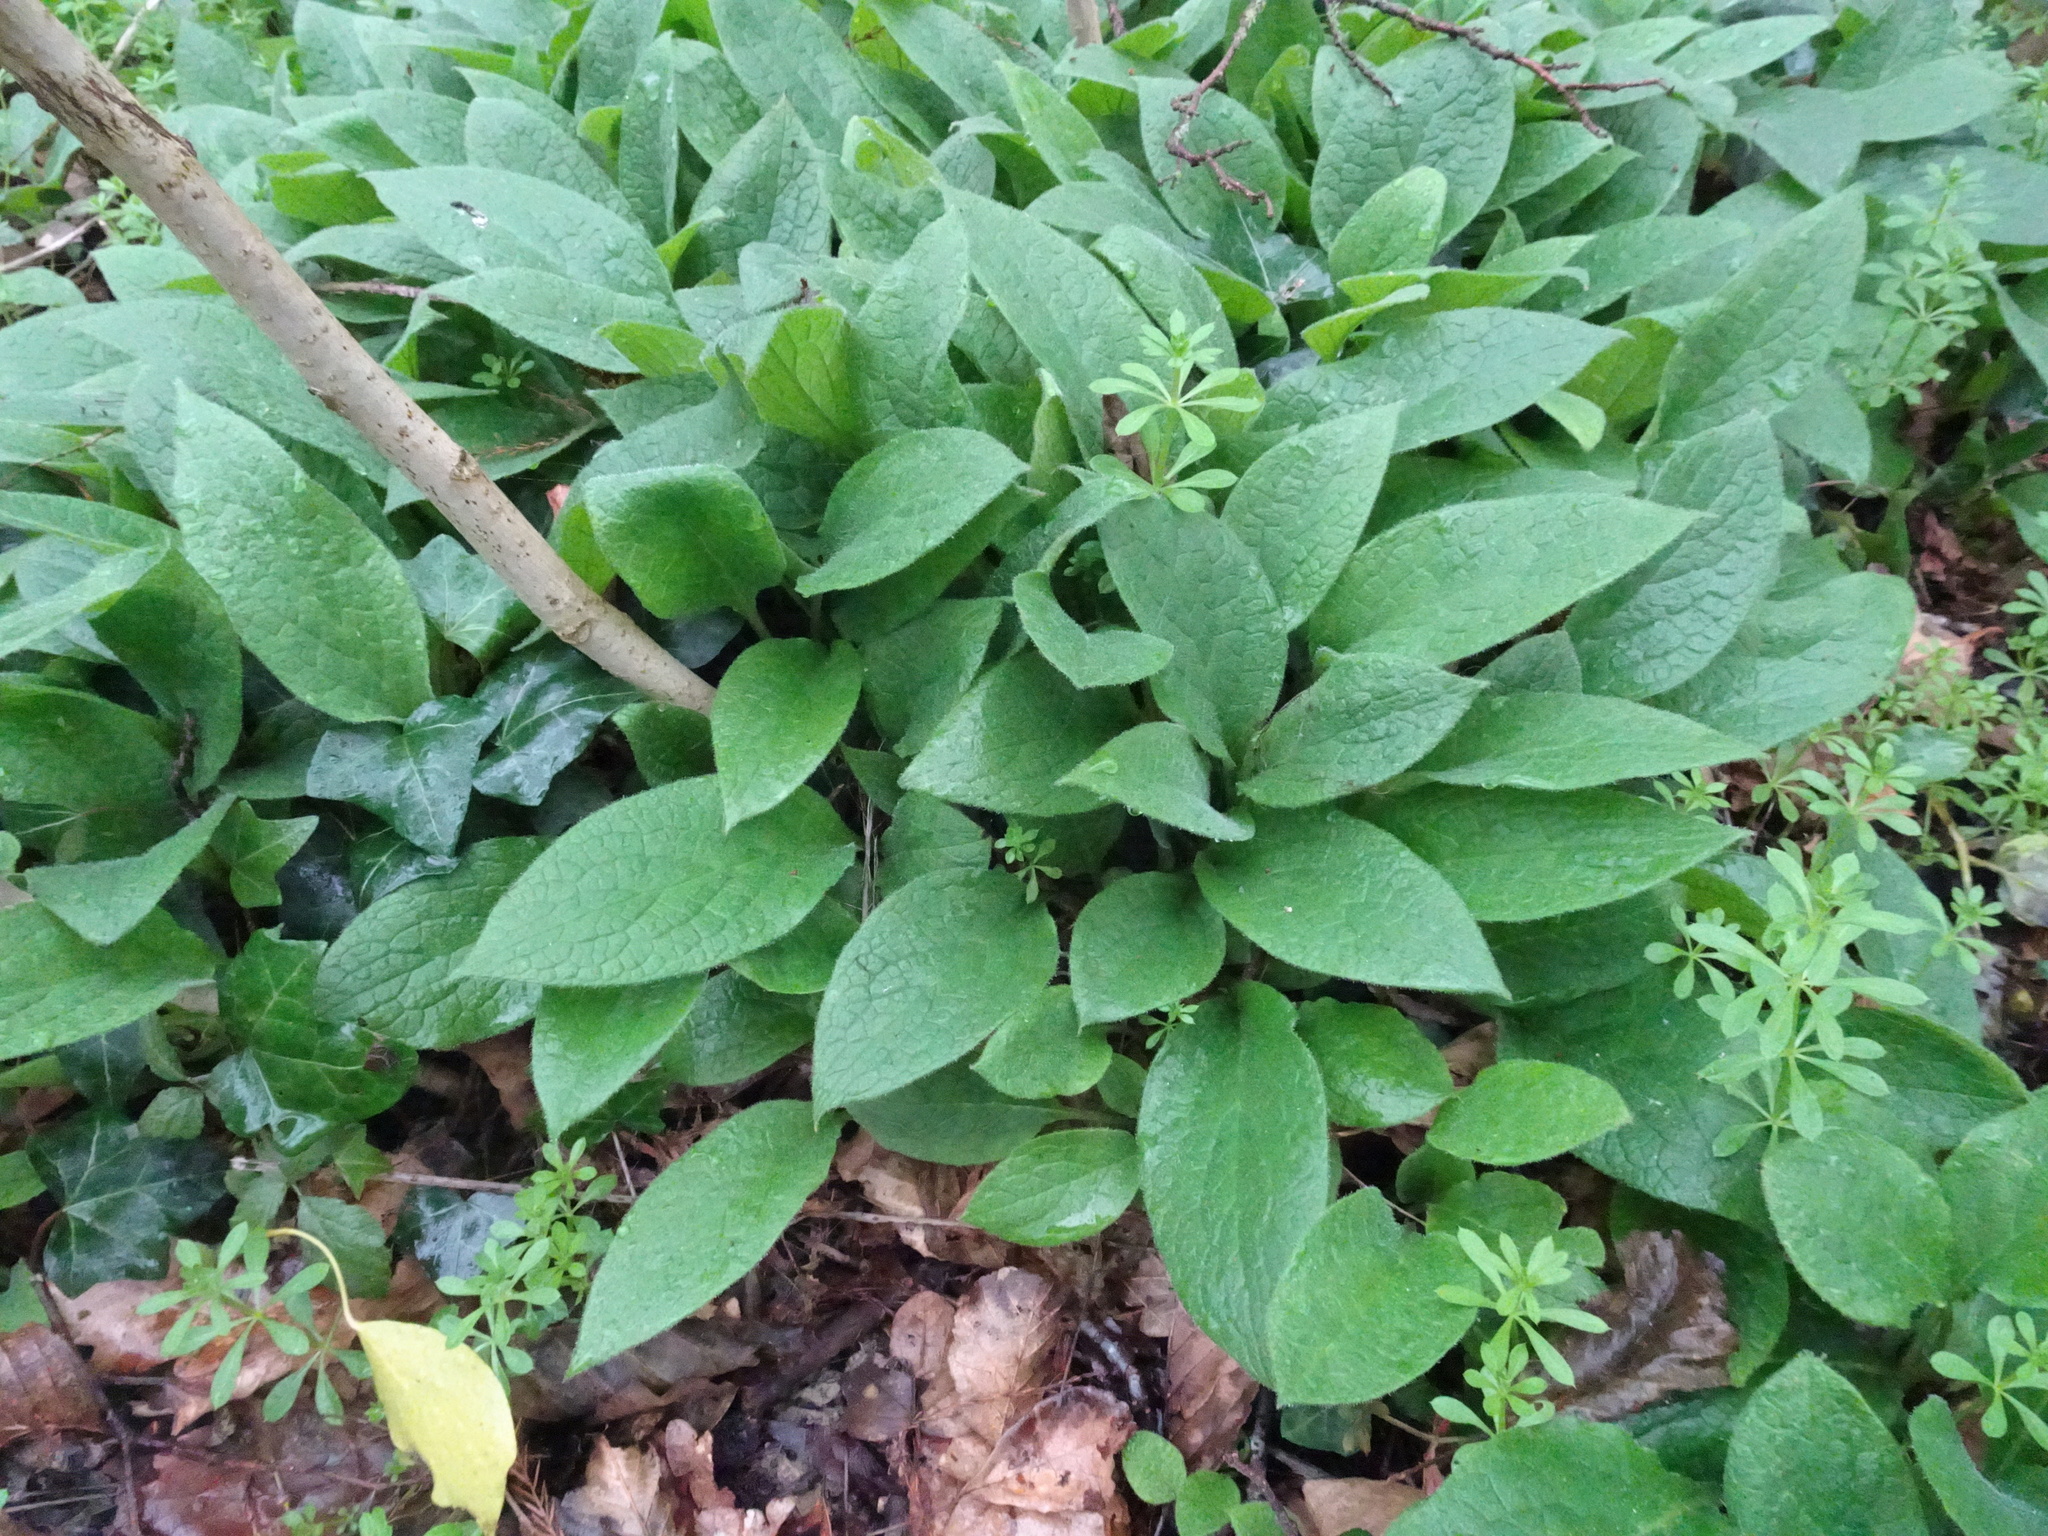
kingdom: Plantae
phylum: Tracheophyta
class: Magnoliopsida
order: Boraginales
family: Boraginaceae
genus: Symphytum
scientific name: Symphytum tuberosum
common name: Tuberous comfrey
